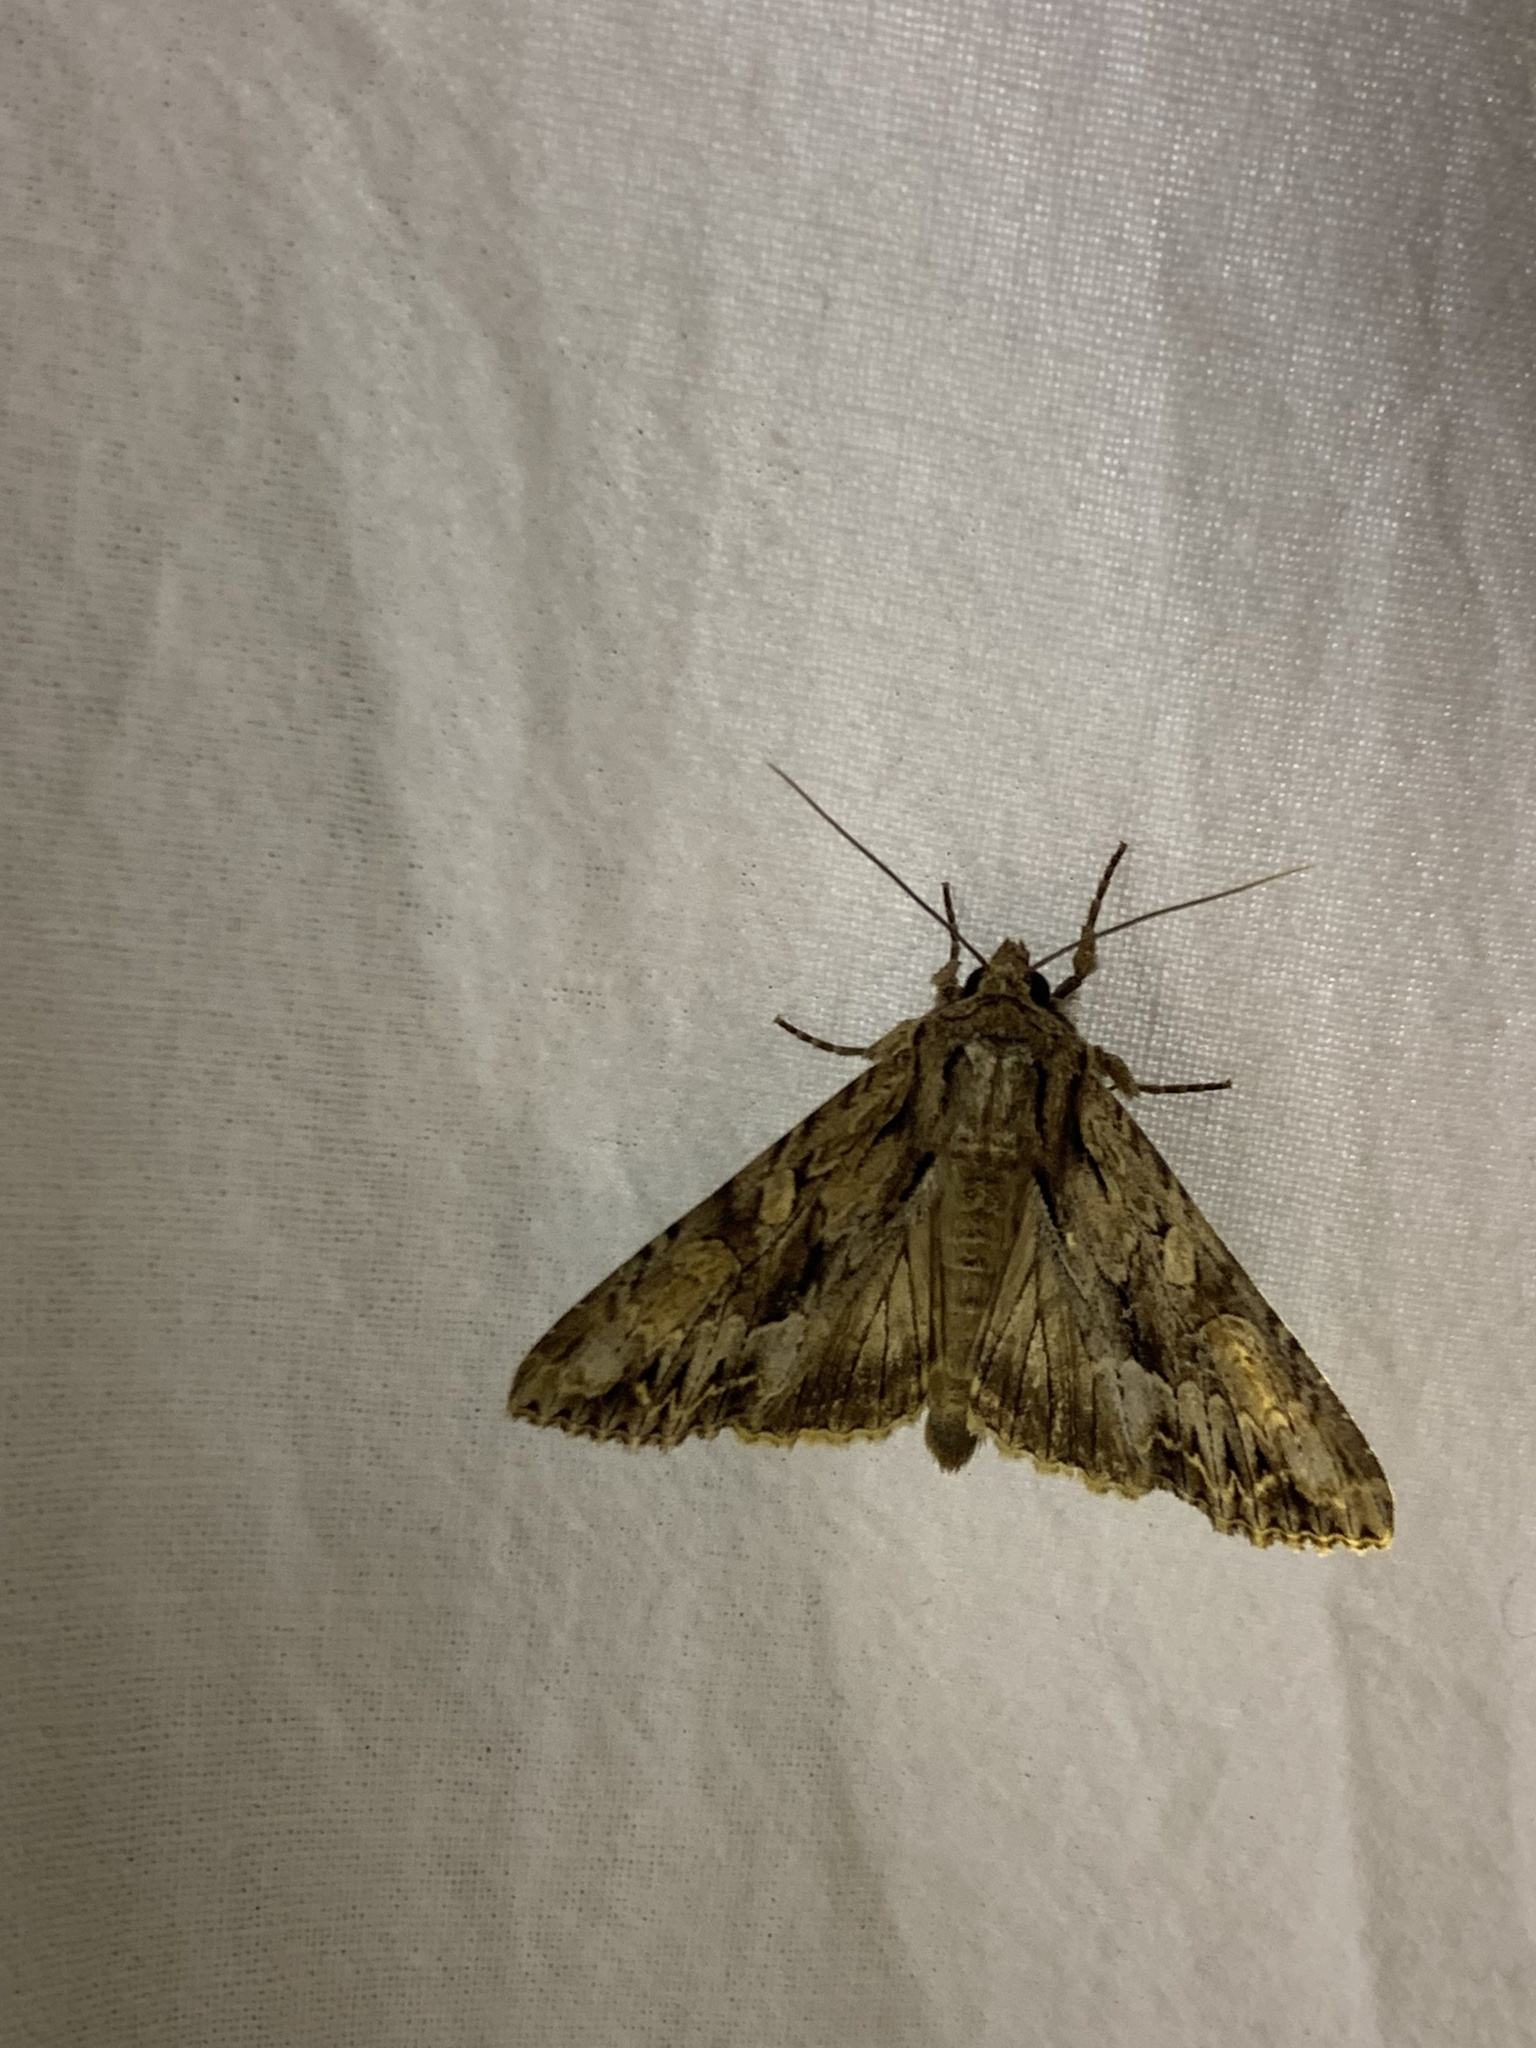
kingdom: Animalia
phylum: Arthropoda
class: Insecta
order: Lepidoptera
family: Noctuidae
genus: Apamea
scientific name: Apamea monoglypha
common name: Dark arches
